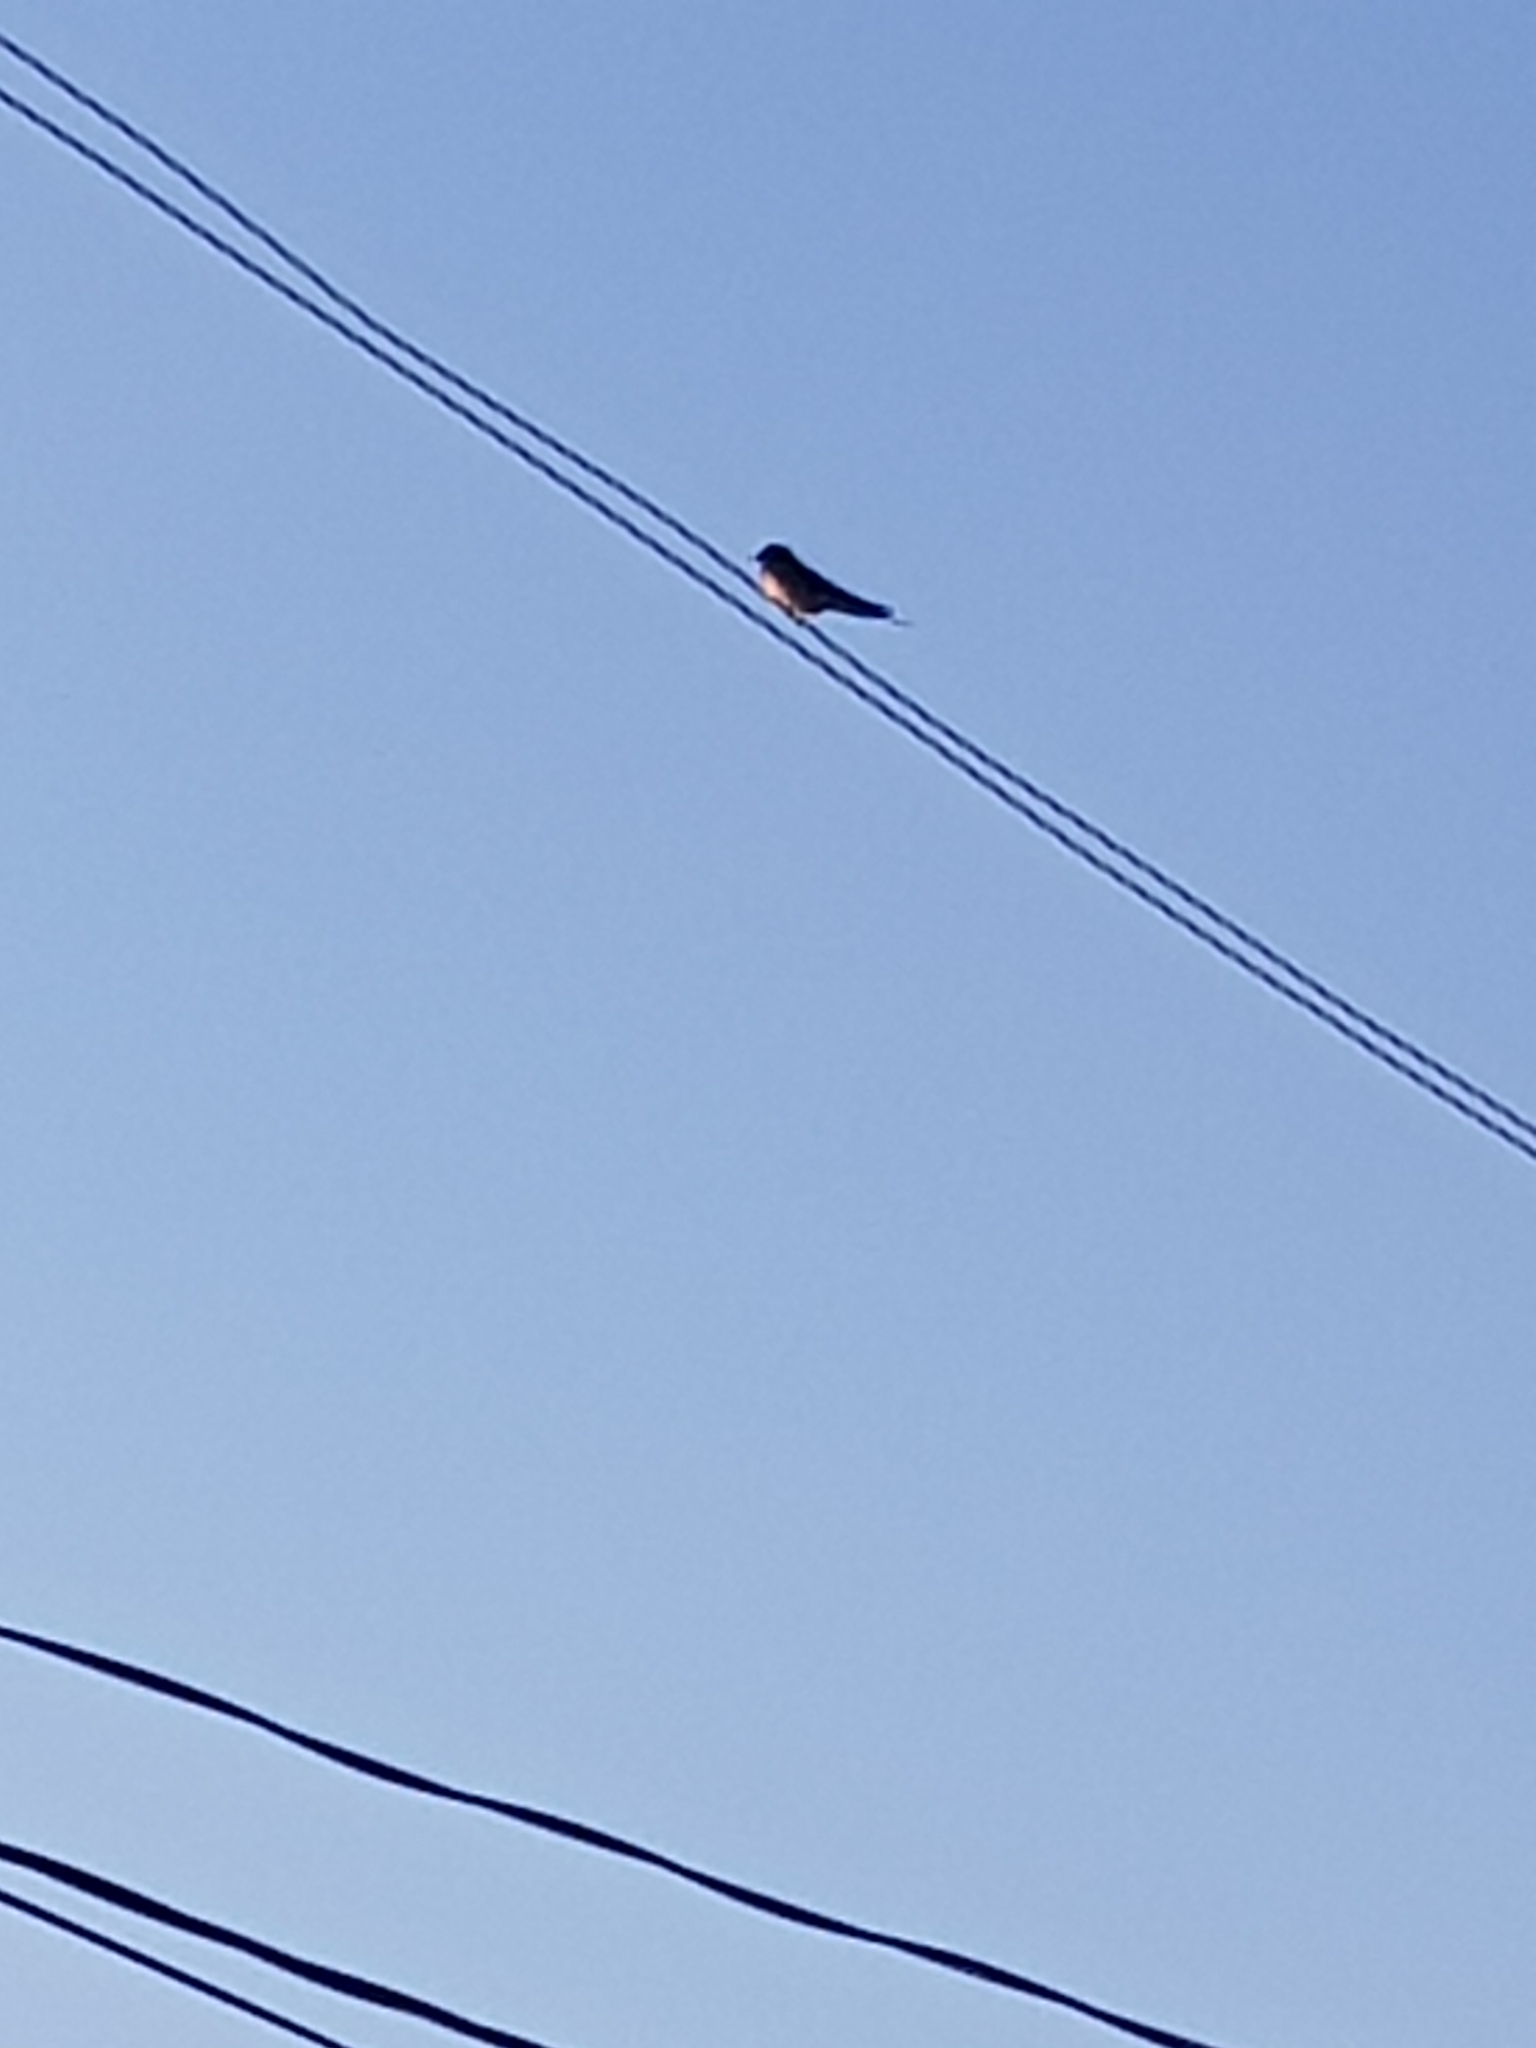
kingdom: Animalia
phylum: Chordata
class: Aves
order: Passeriformes
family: Hirundinidae
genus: Hirundo
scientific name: Hirundo rustica
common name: Barn swallow
